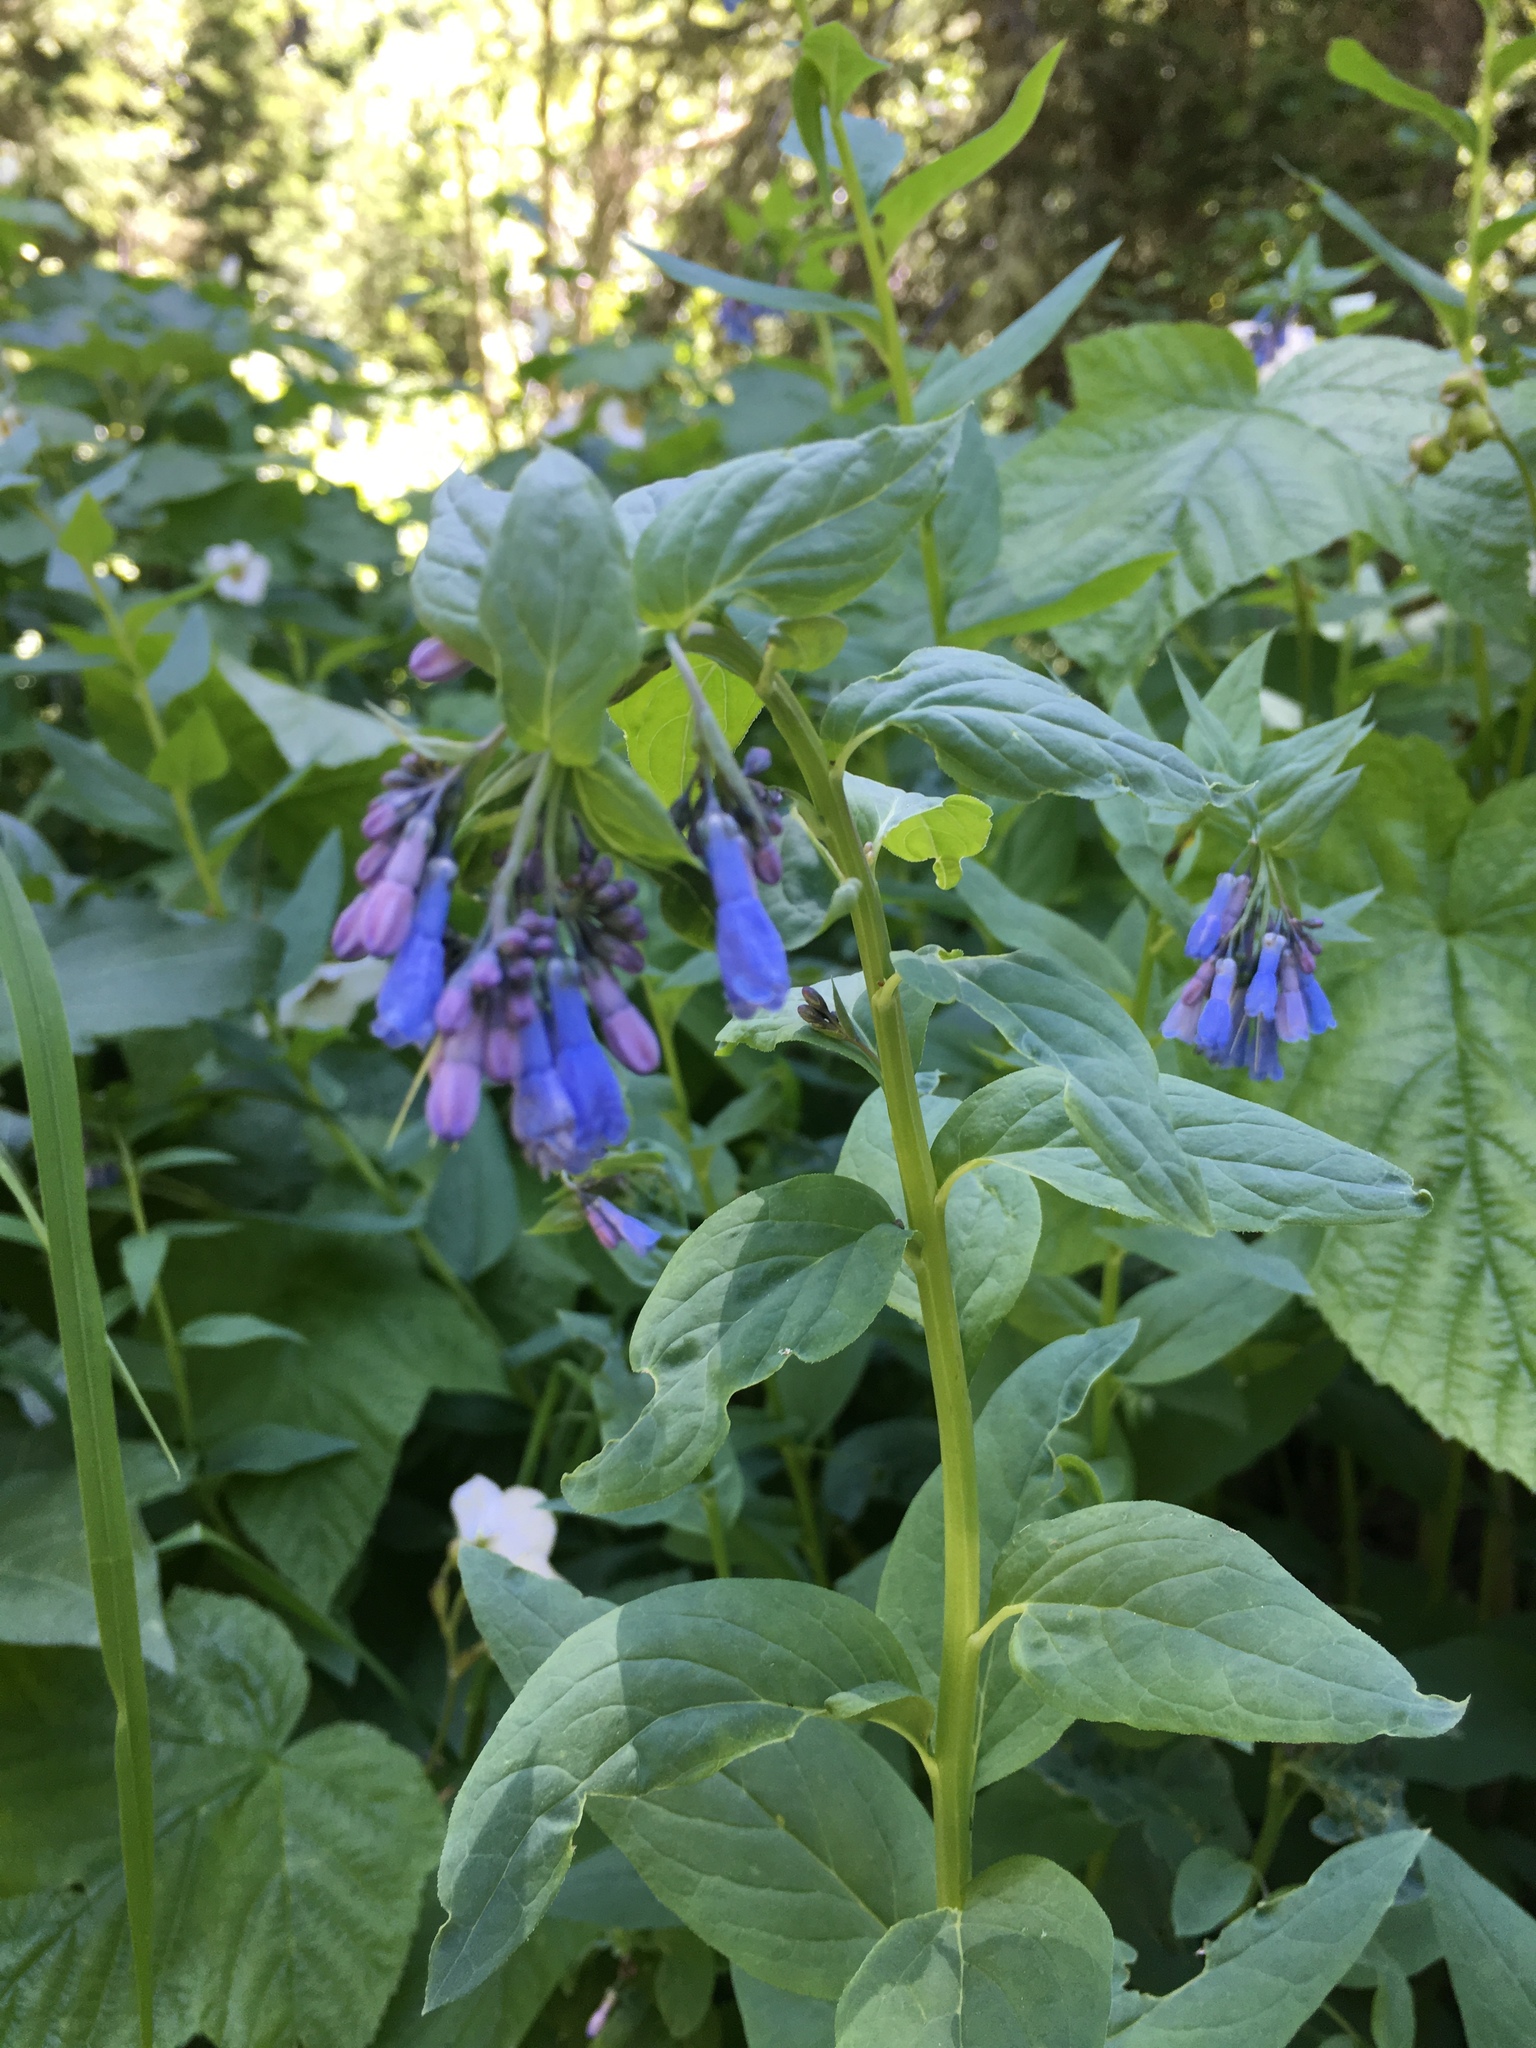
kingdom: Plantae
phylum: Tracheophyta
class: Magnoliopsida
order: Boraginales
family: Boraginaceae
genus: Mertensia
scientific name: Mertensia ciliata
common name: Tall chiming-bells
